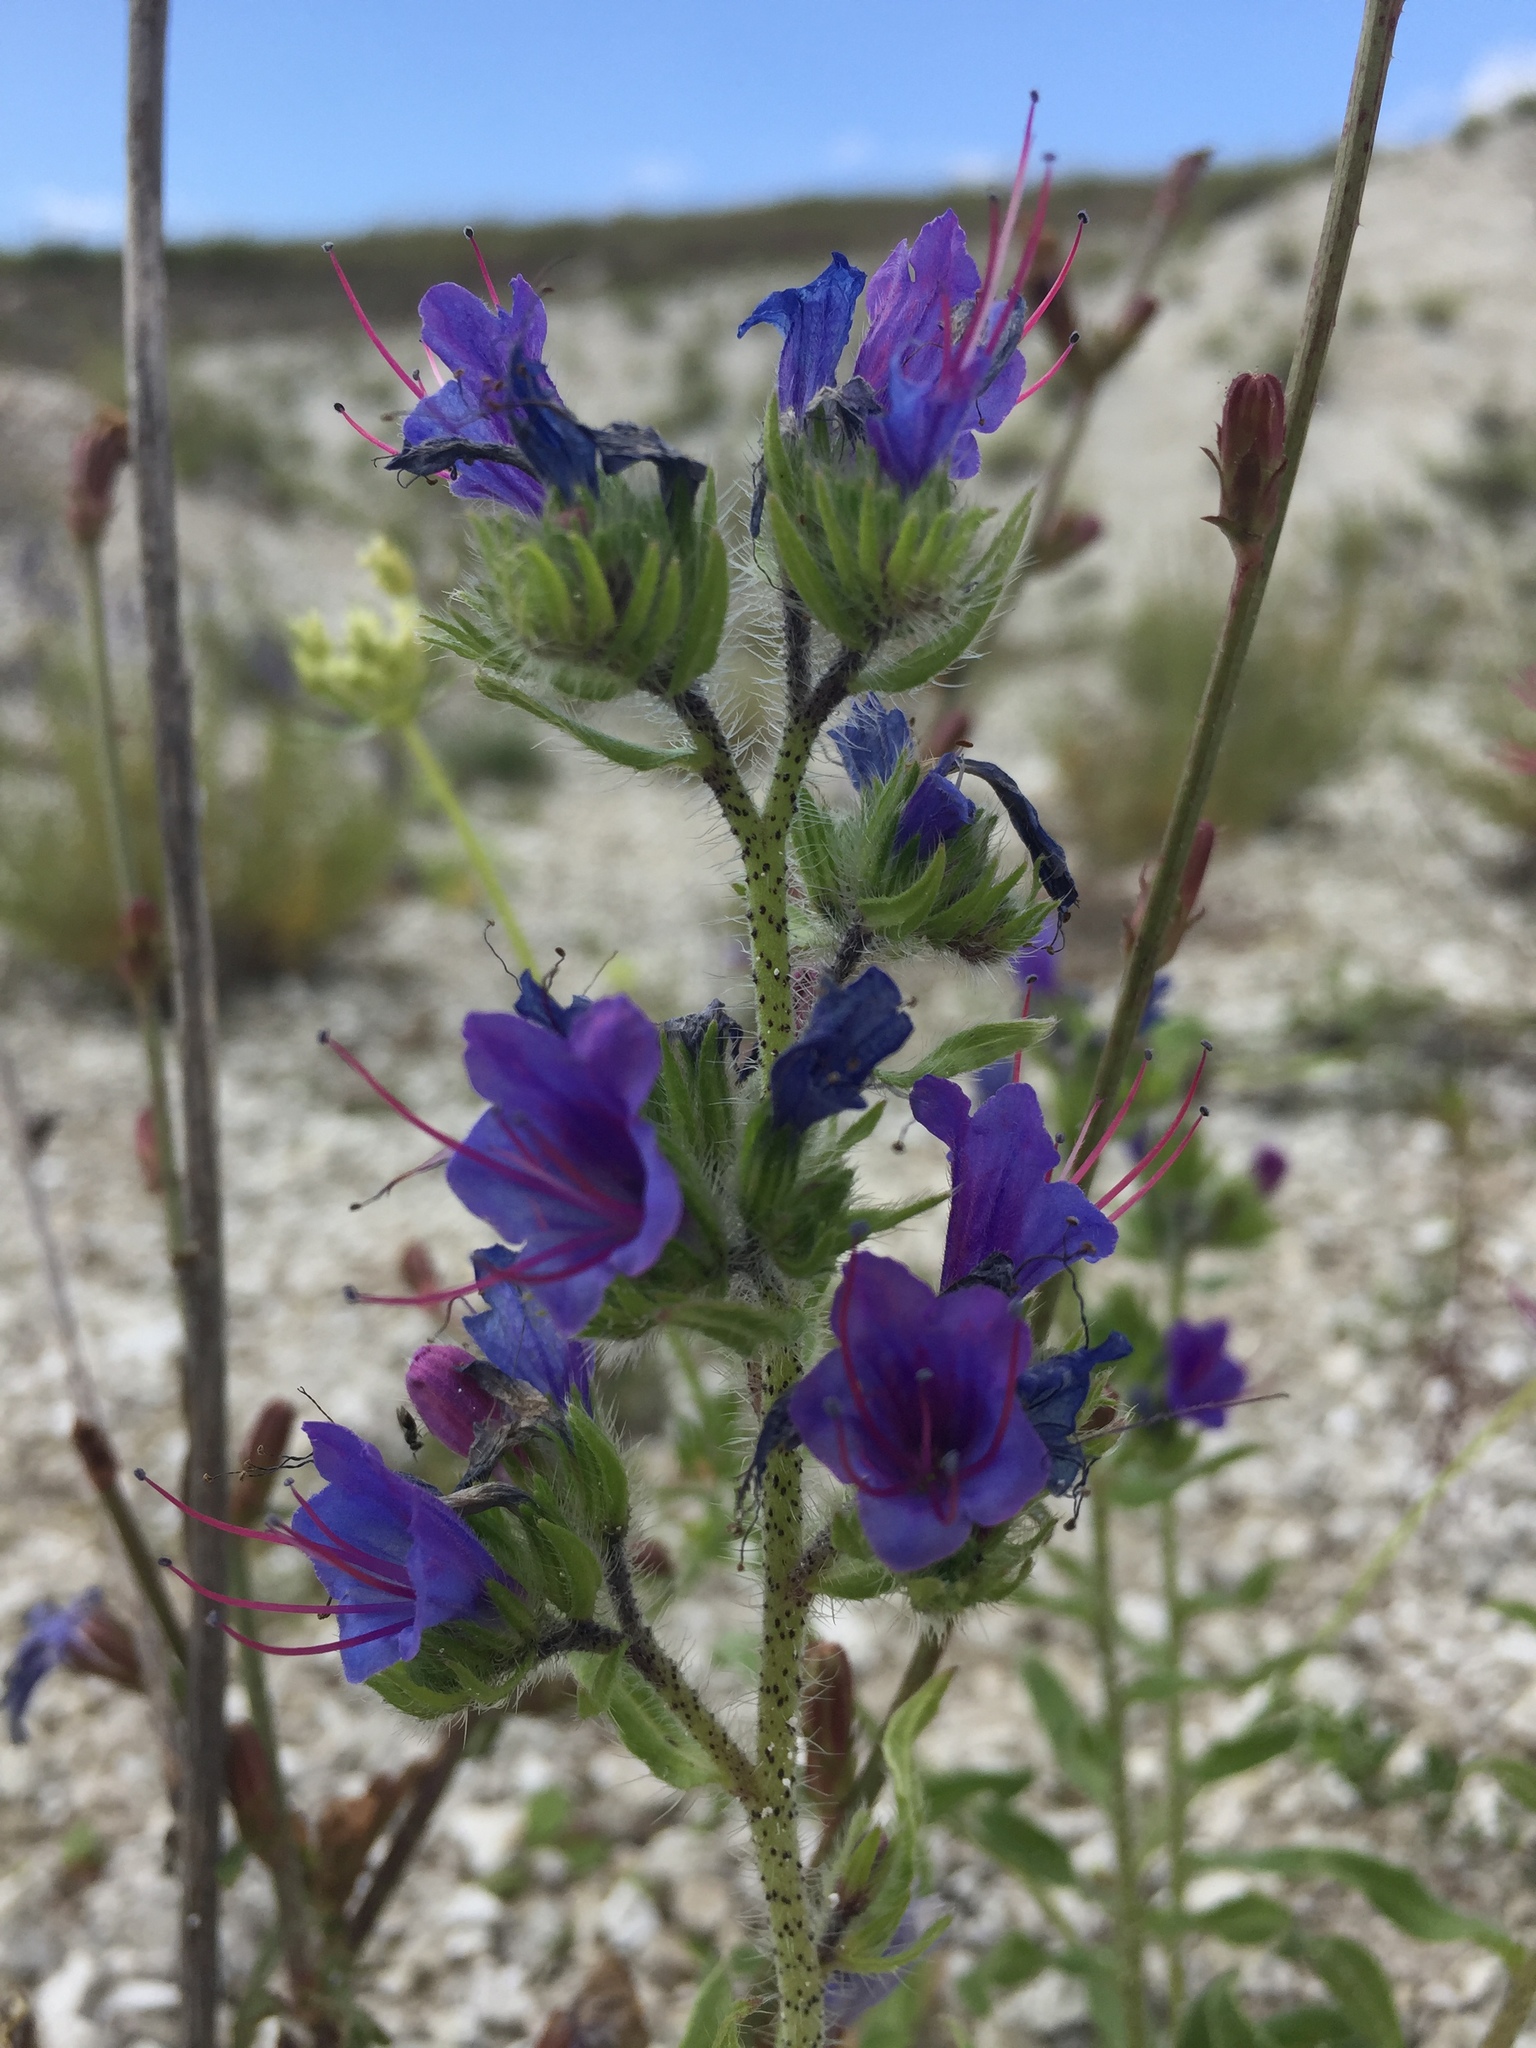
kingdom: Plantae
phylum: Tracheophyta
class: Magnoliopsida
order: Boraginales
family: Boraginaceae
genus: Echium
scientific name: Echium vulgare
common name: Common viper's bugloss
